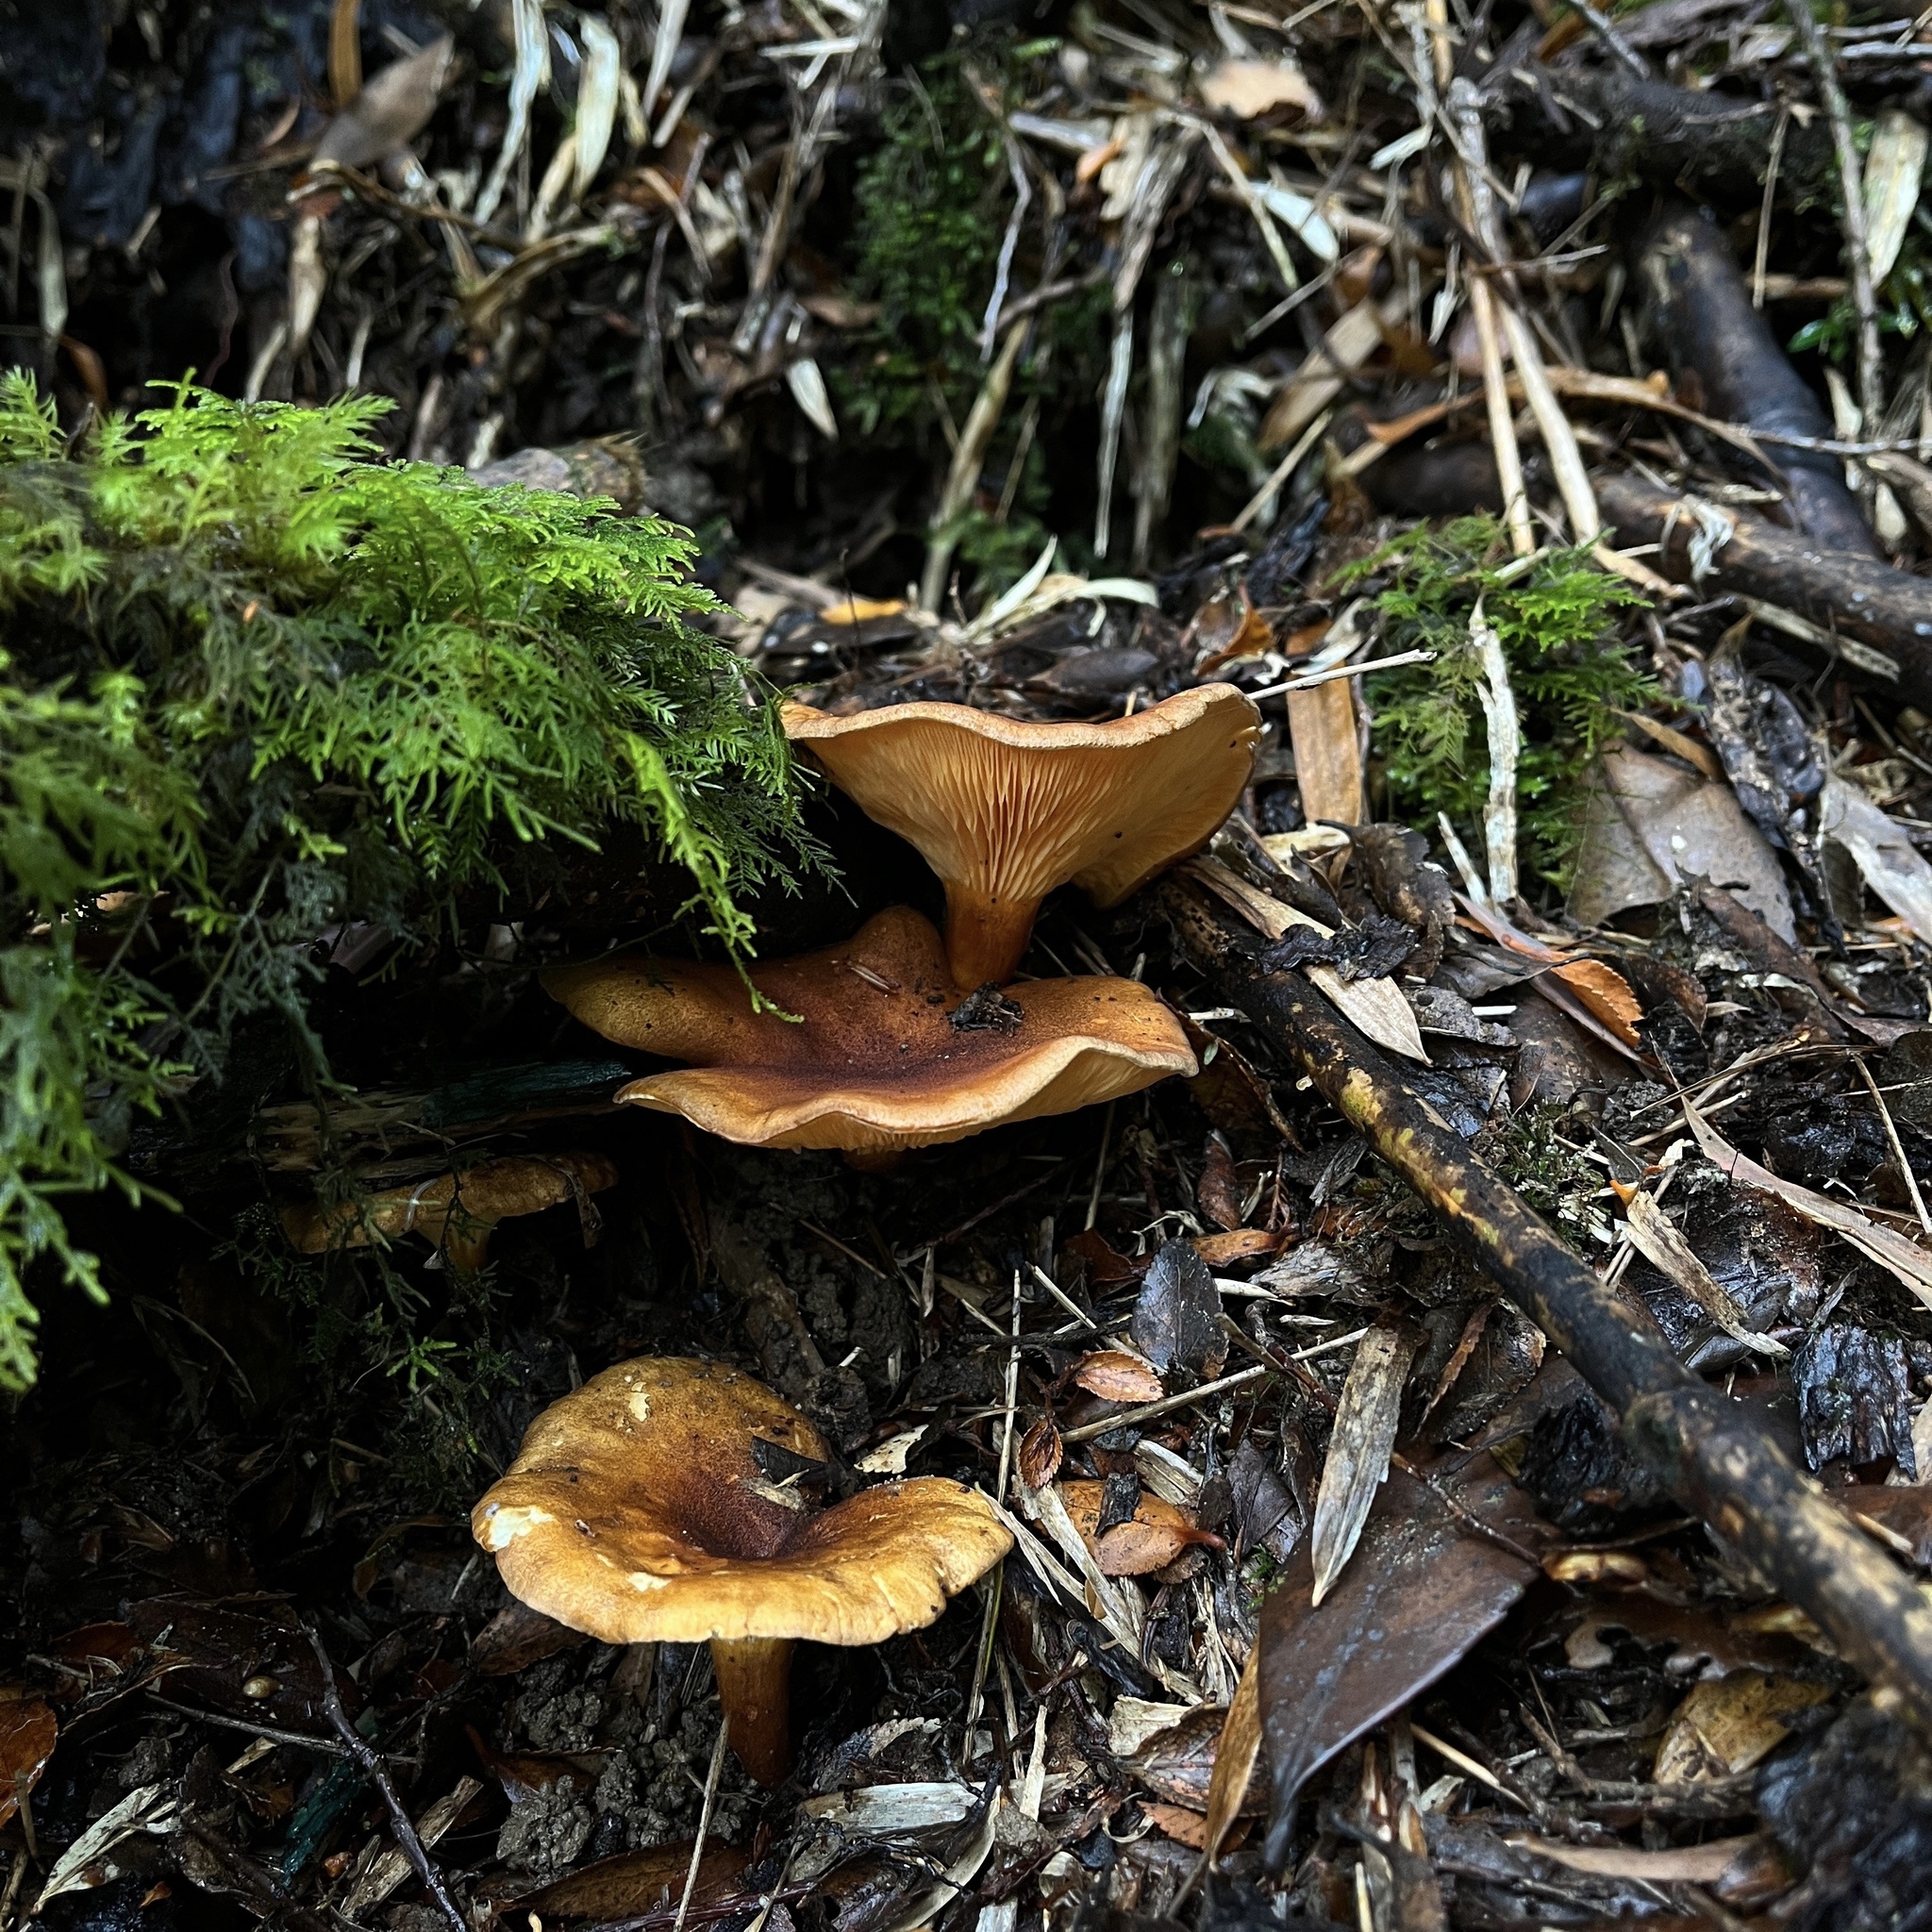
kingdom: Fungi
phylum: Basidiomycota
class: Agaricomycetes
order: Boletales
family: Hygrophoropsidaceae
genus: Hygrophoropsis
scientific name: Hygrophoropsis aurantiaca
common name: False chanterelle
